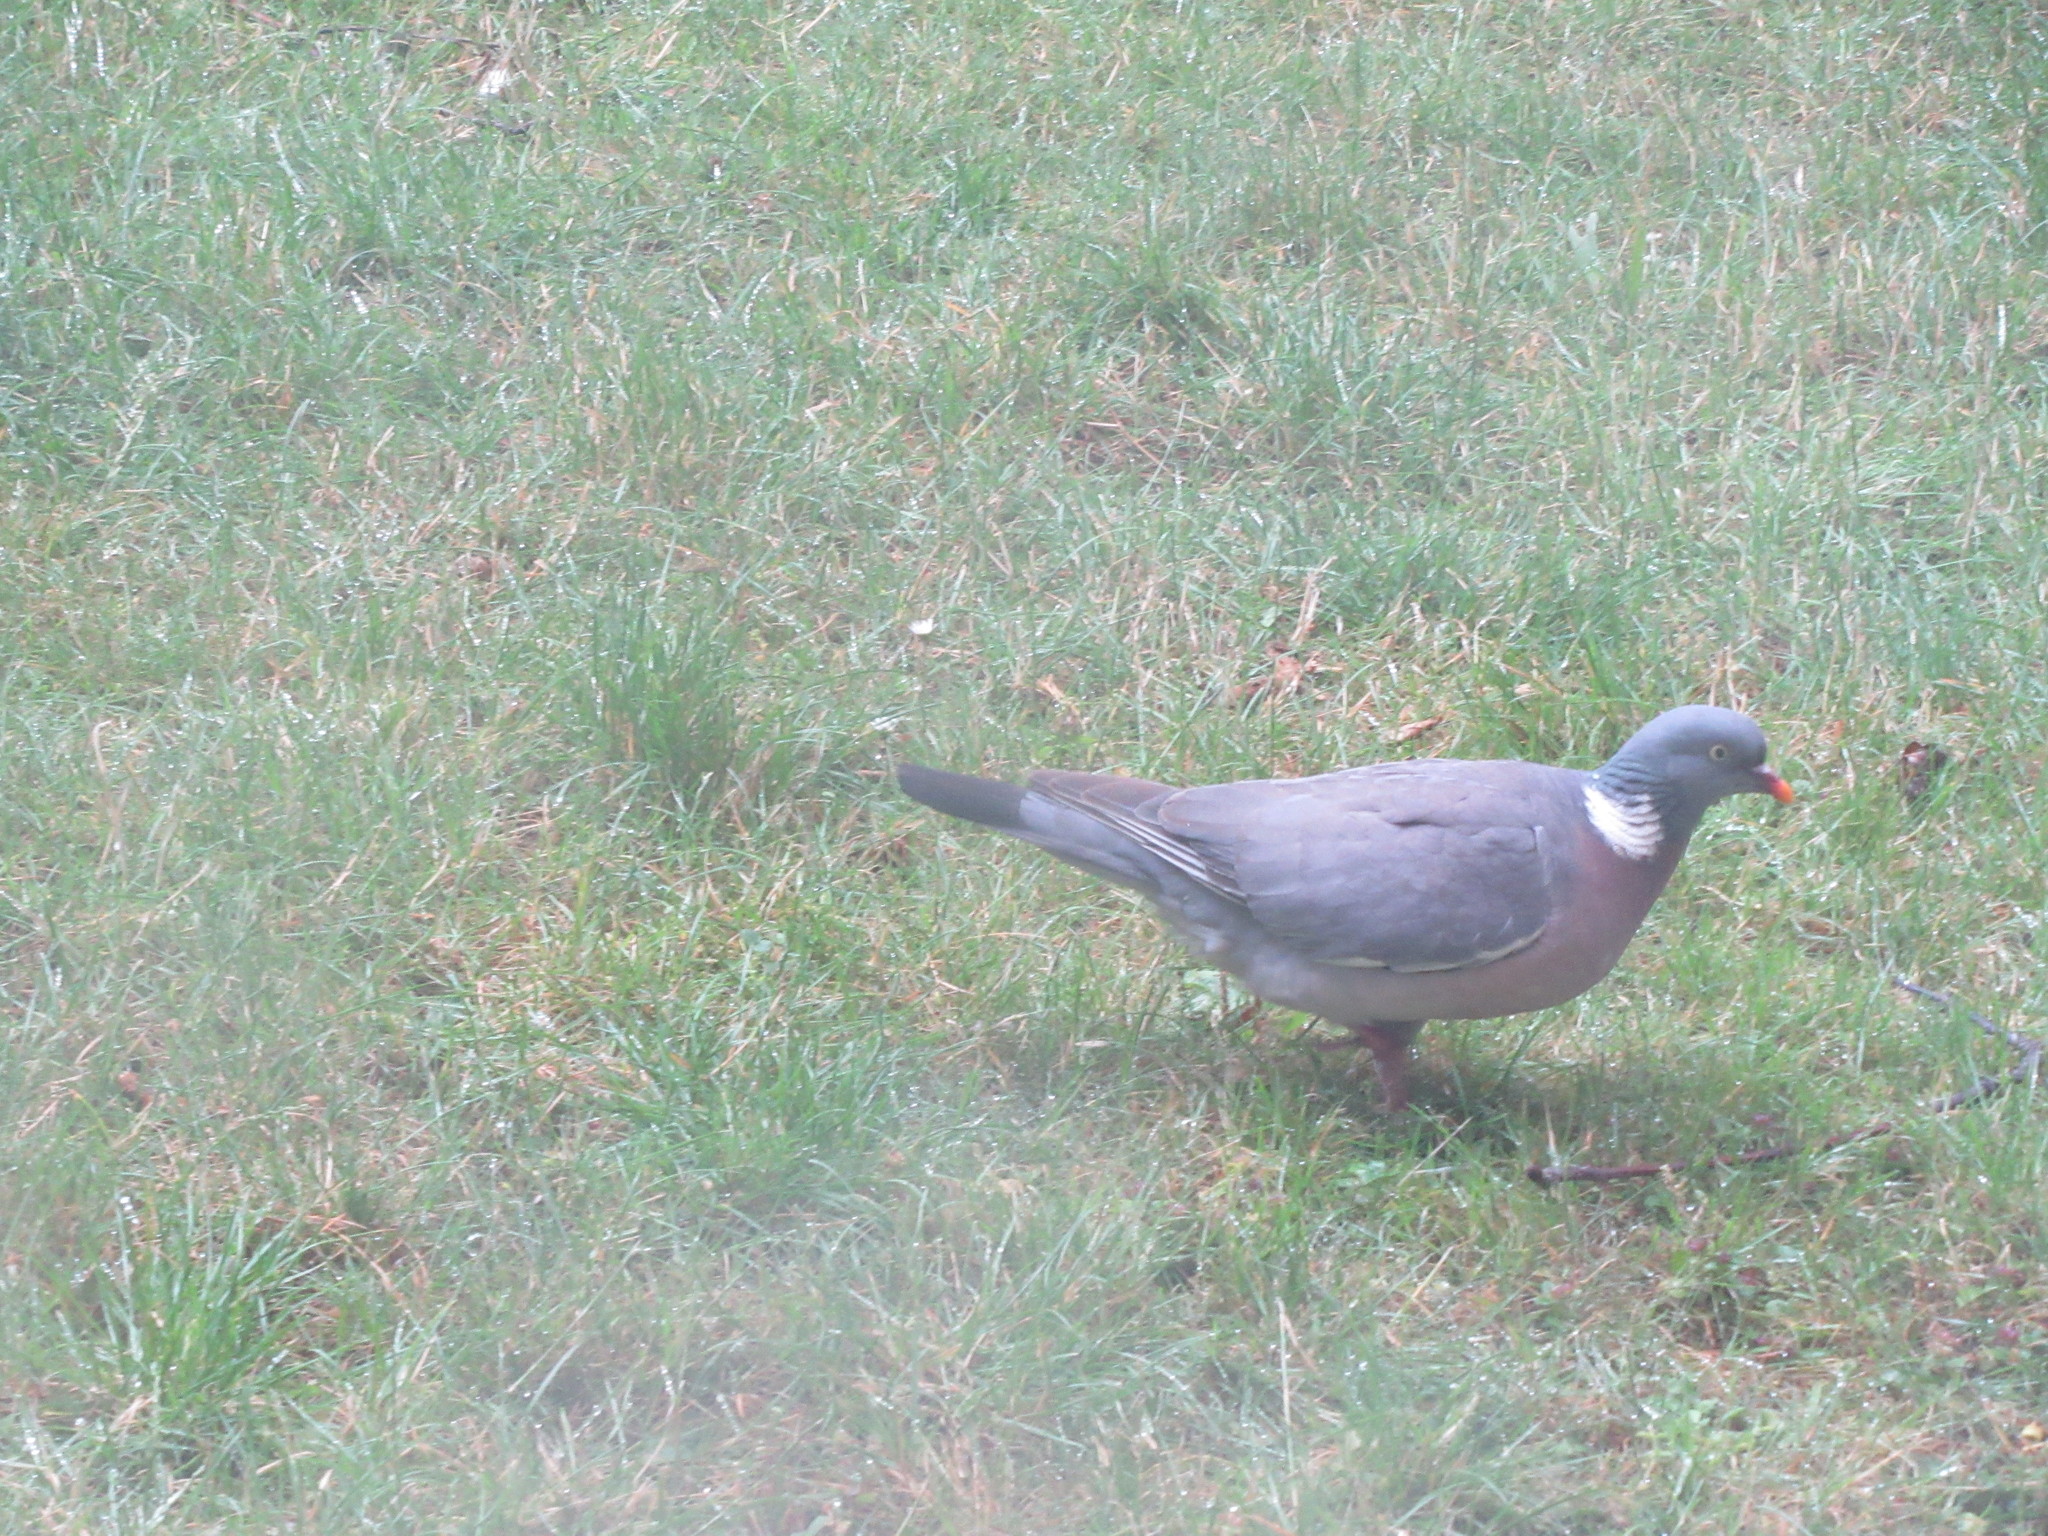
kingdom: Animalia
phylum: Chordata
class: Aves
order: Columbiformes
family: Columbidae
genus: Columba
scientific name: Columba palumbus
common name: Common wood pigeon
